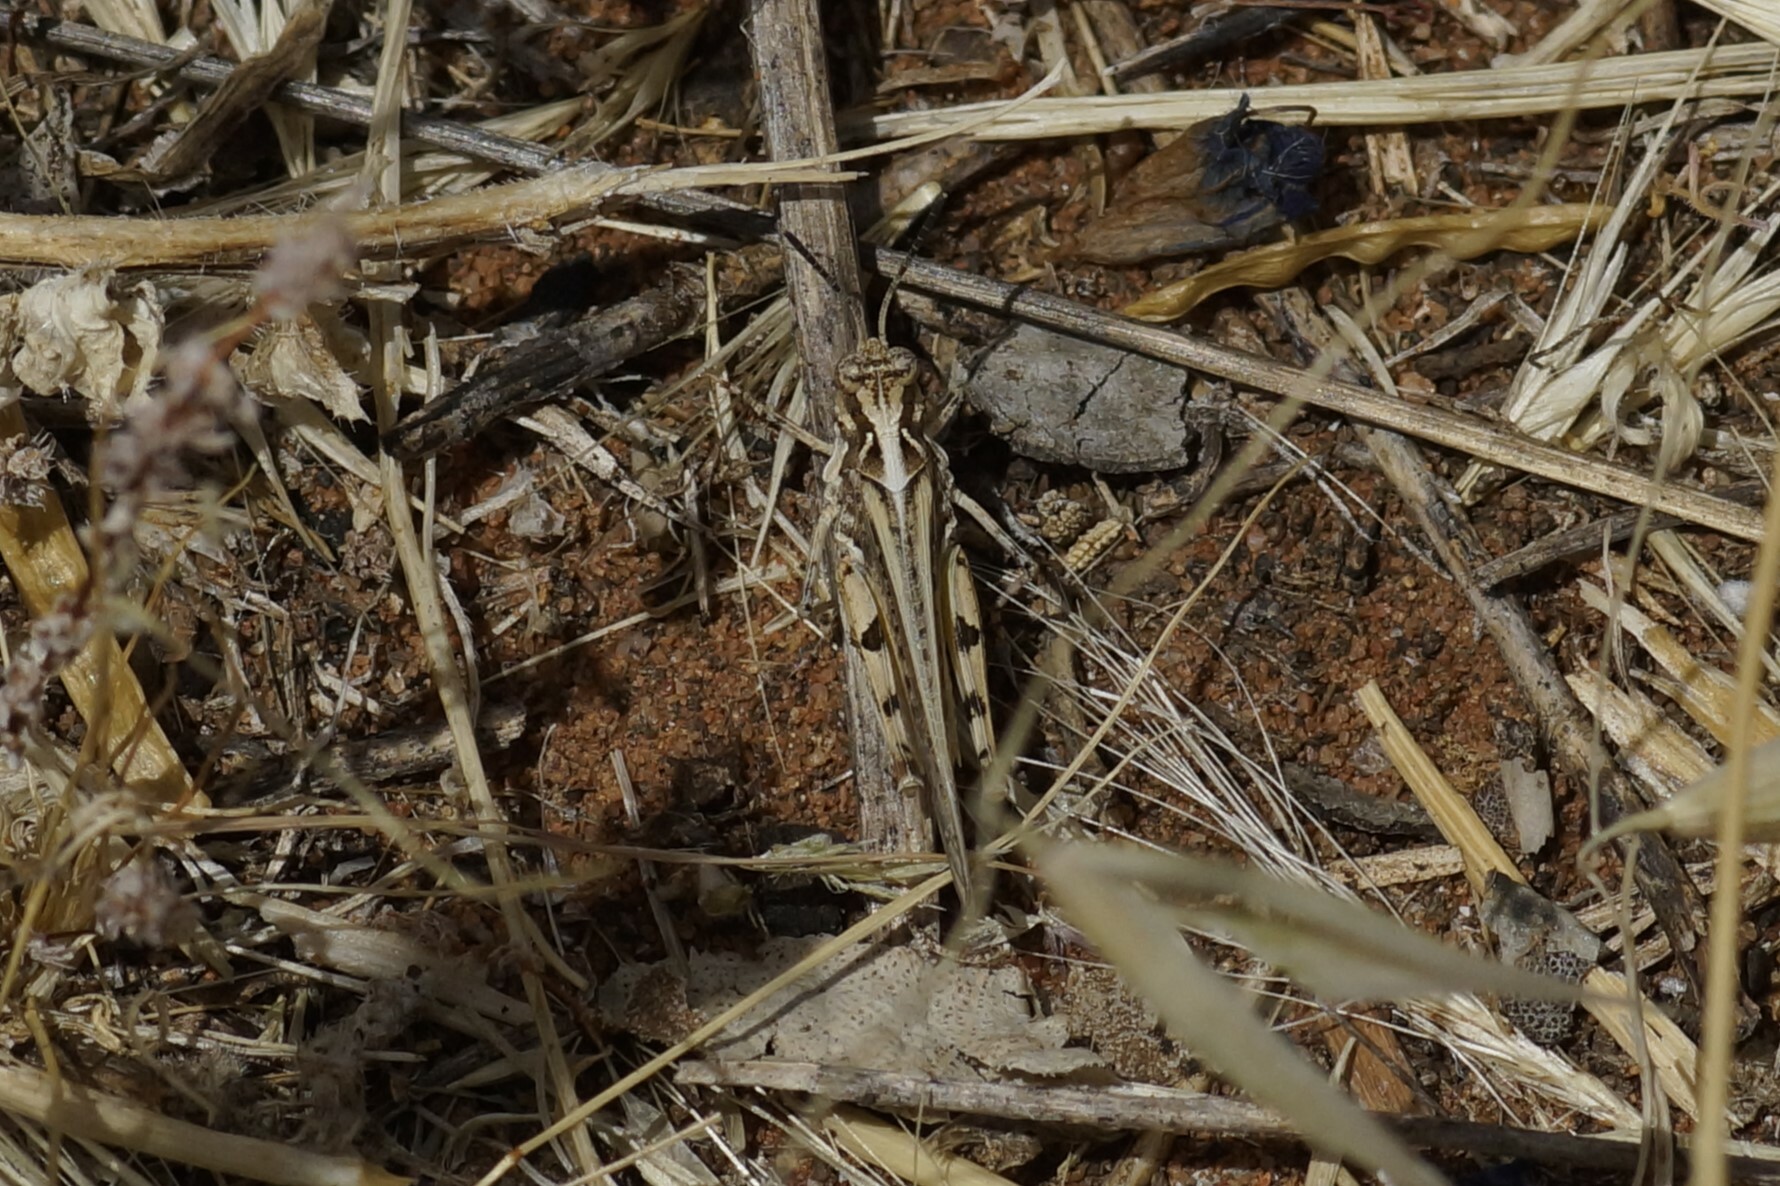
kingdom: Animalia
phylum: Arthropoda
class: Insecta
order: Orthoptera
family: Acrididae
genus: Pycnostictus
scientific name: Pycnostictus seriatus
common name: Common bandwing
